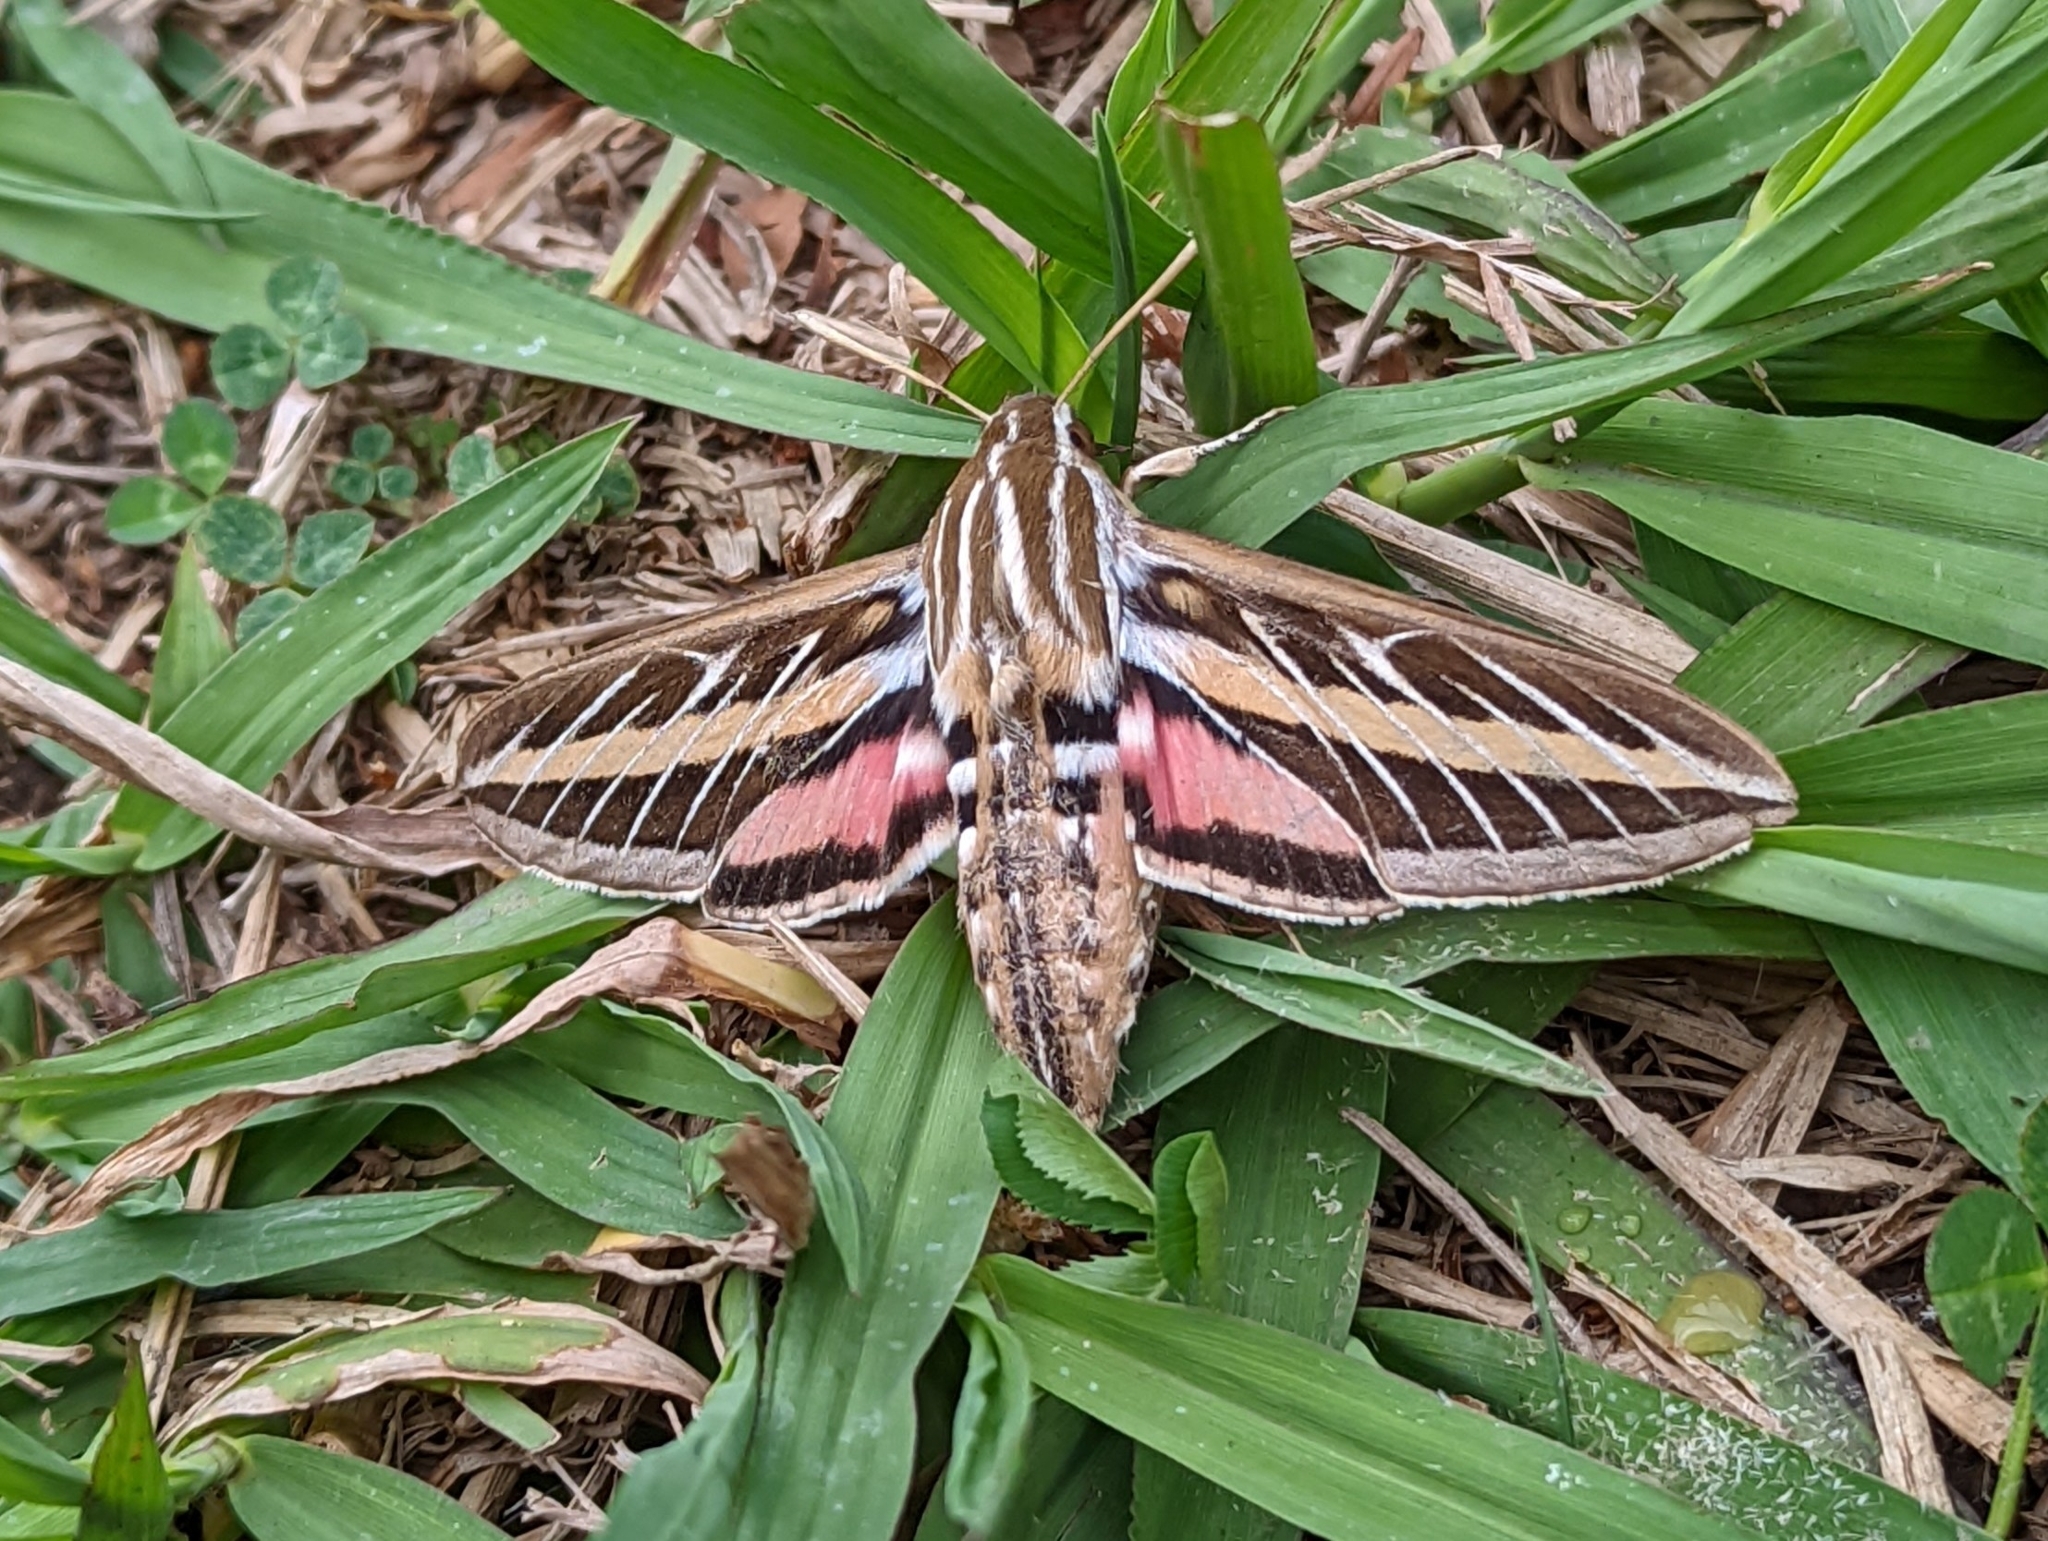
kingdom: Animalia
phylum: Arthropoda
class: Insecta
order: Lepidoptera
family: Sphingidae
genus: Hyles
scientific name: Hyles lineata
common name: White-lined sphinx
